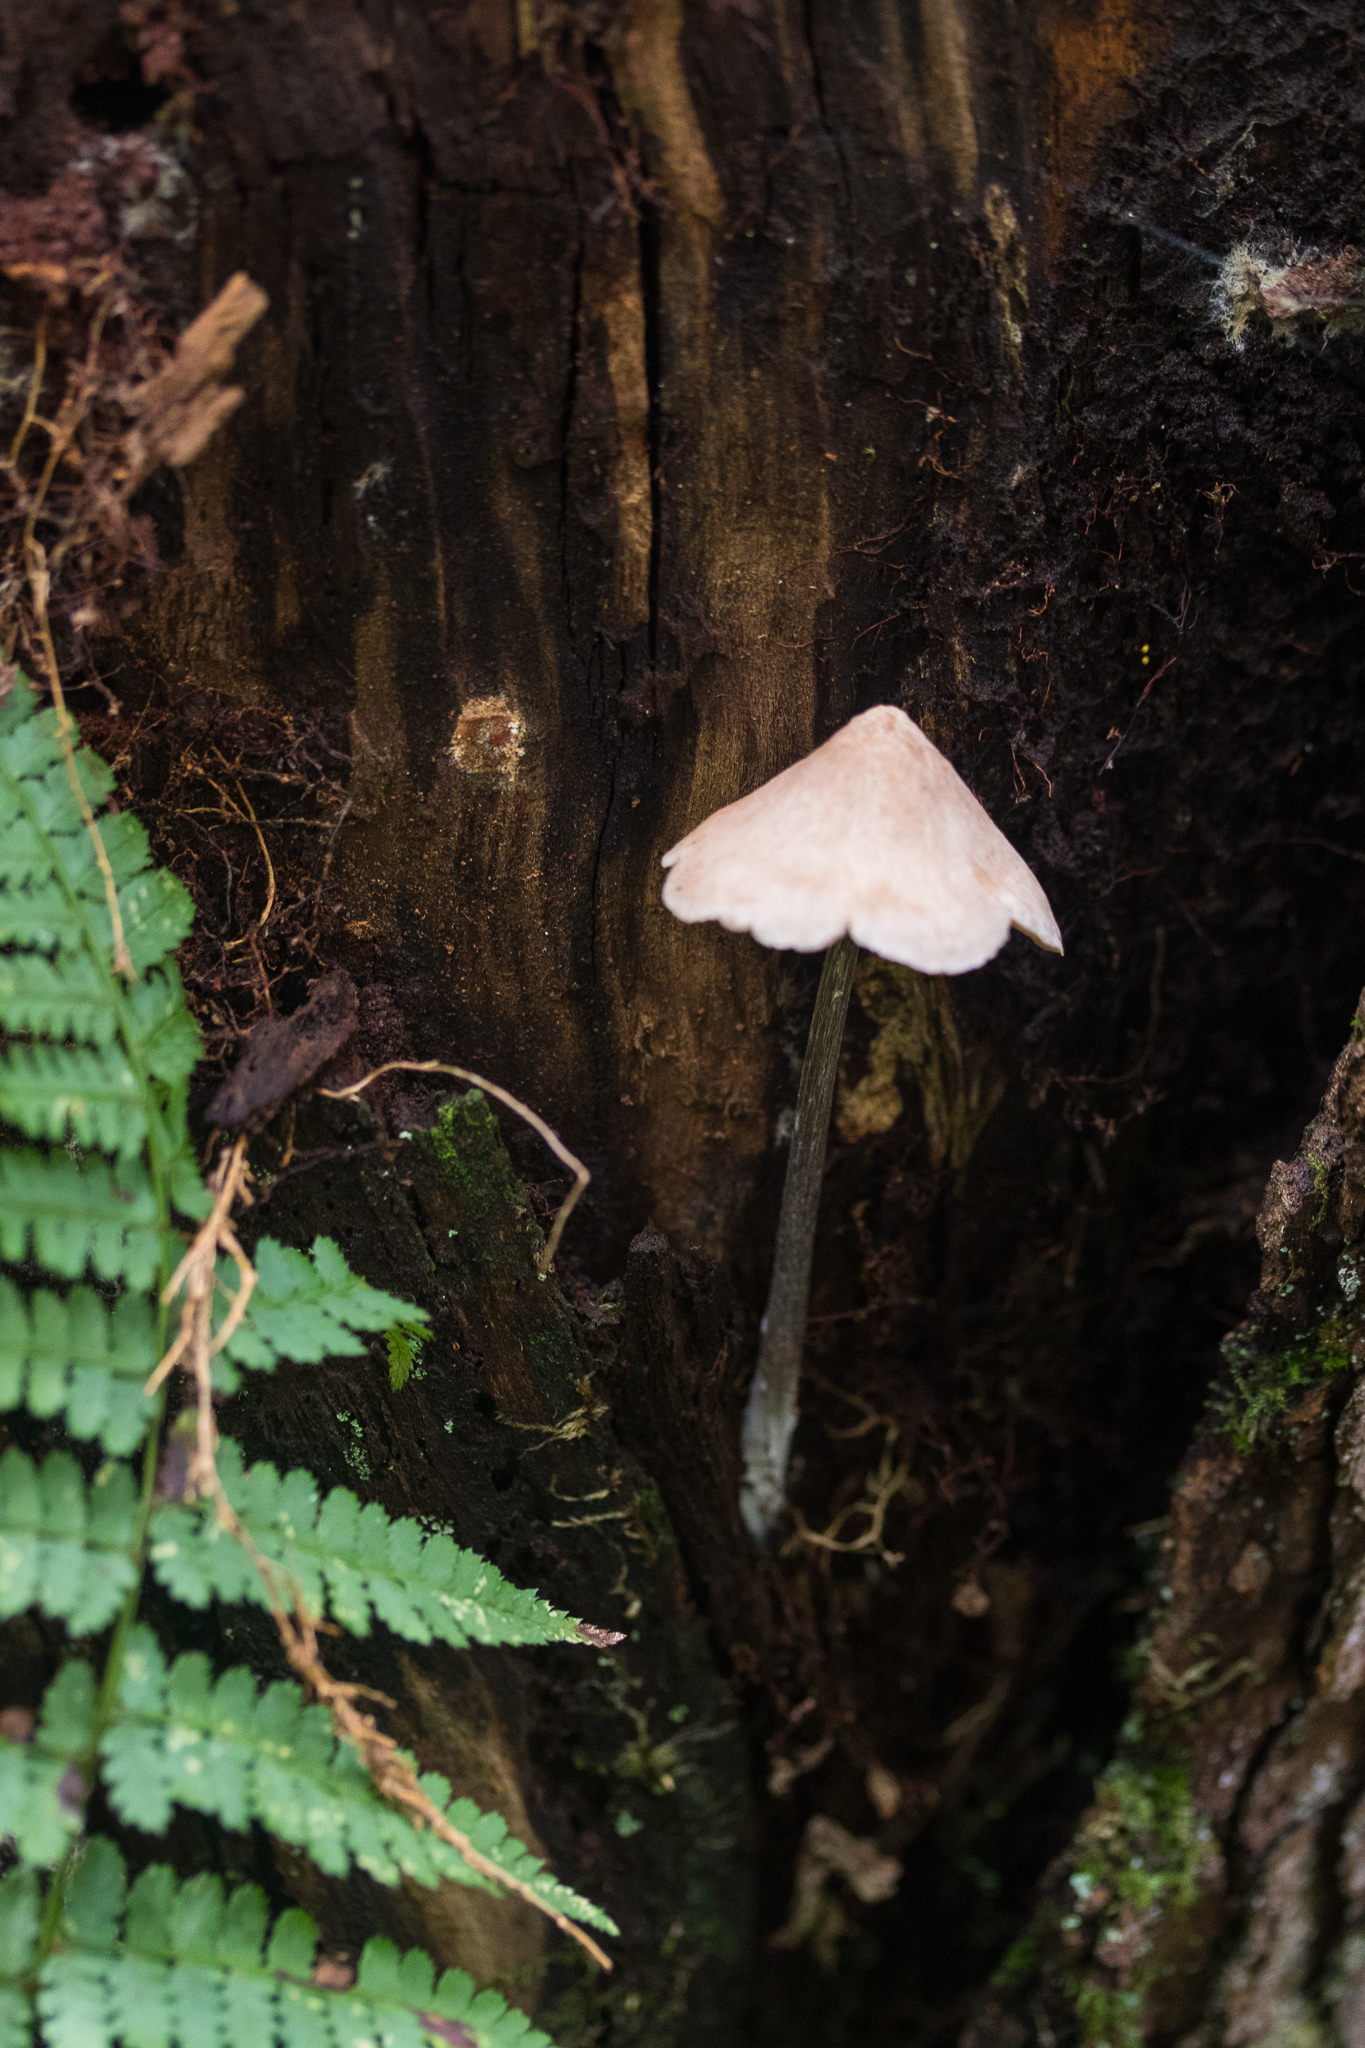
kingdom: Fungi
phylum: Basidiomycota
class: Agaricomycetes
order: Agaricales
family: Entolomataceae
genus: Entoloma
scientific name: Entoloma conicum
